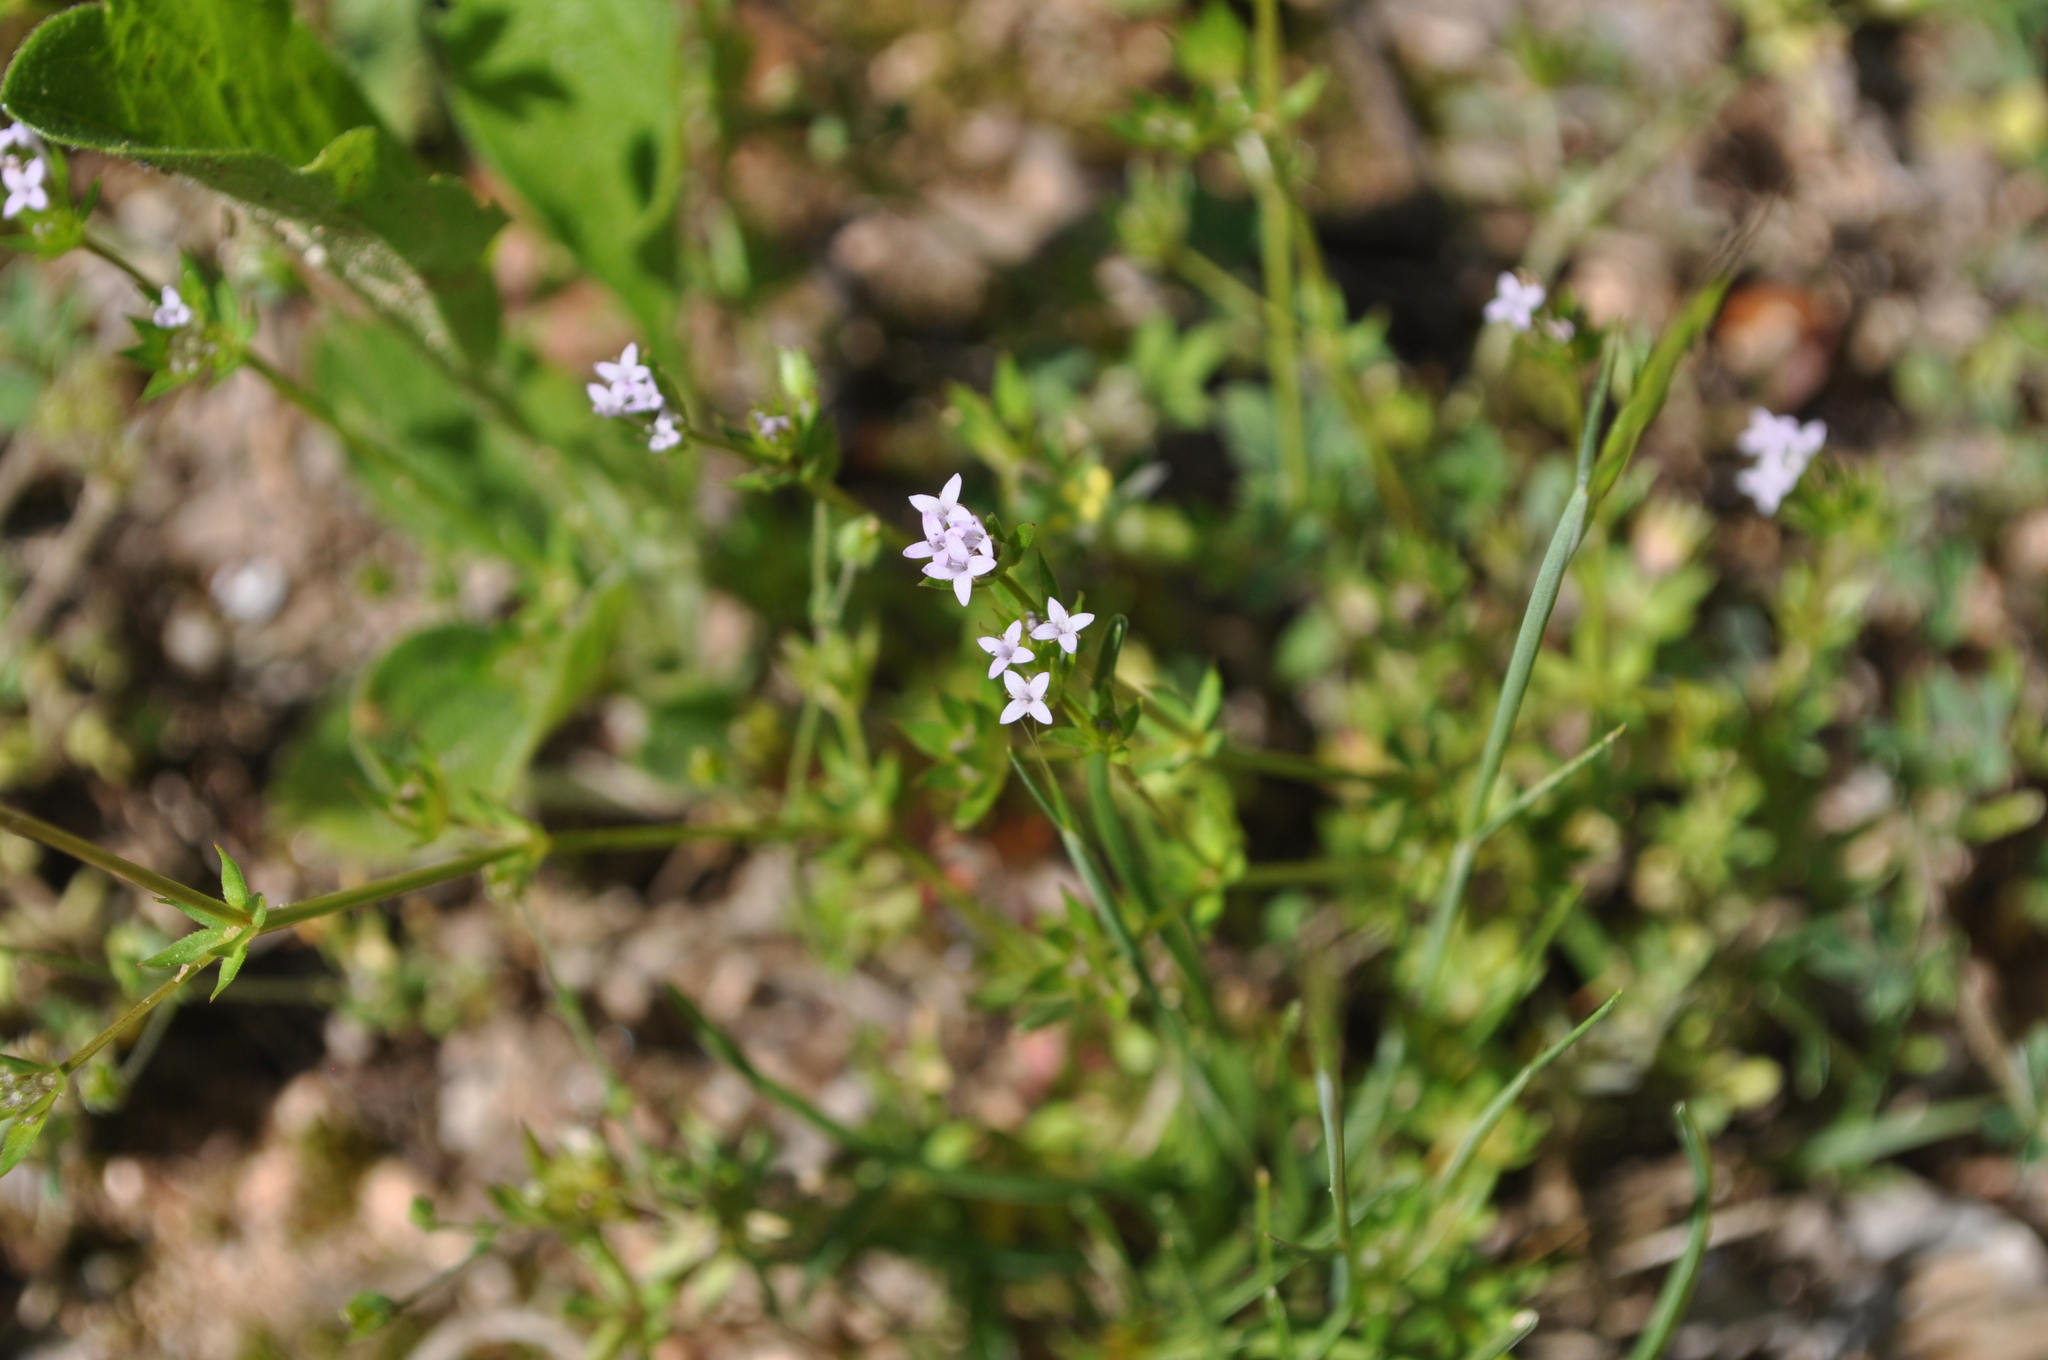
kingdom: Plantae
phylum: Tracheophyta
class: Magnoliopsida
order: Gentianales
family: Rubiaceae
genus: Sherardia
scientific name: Sherardia arvensis
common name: Field madder
